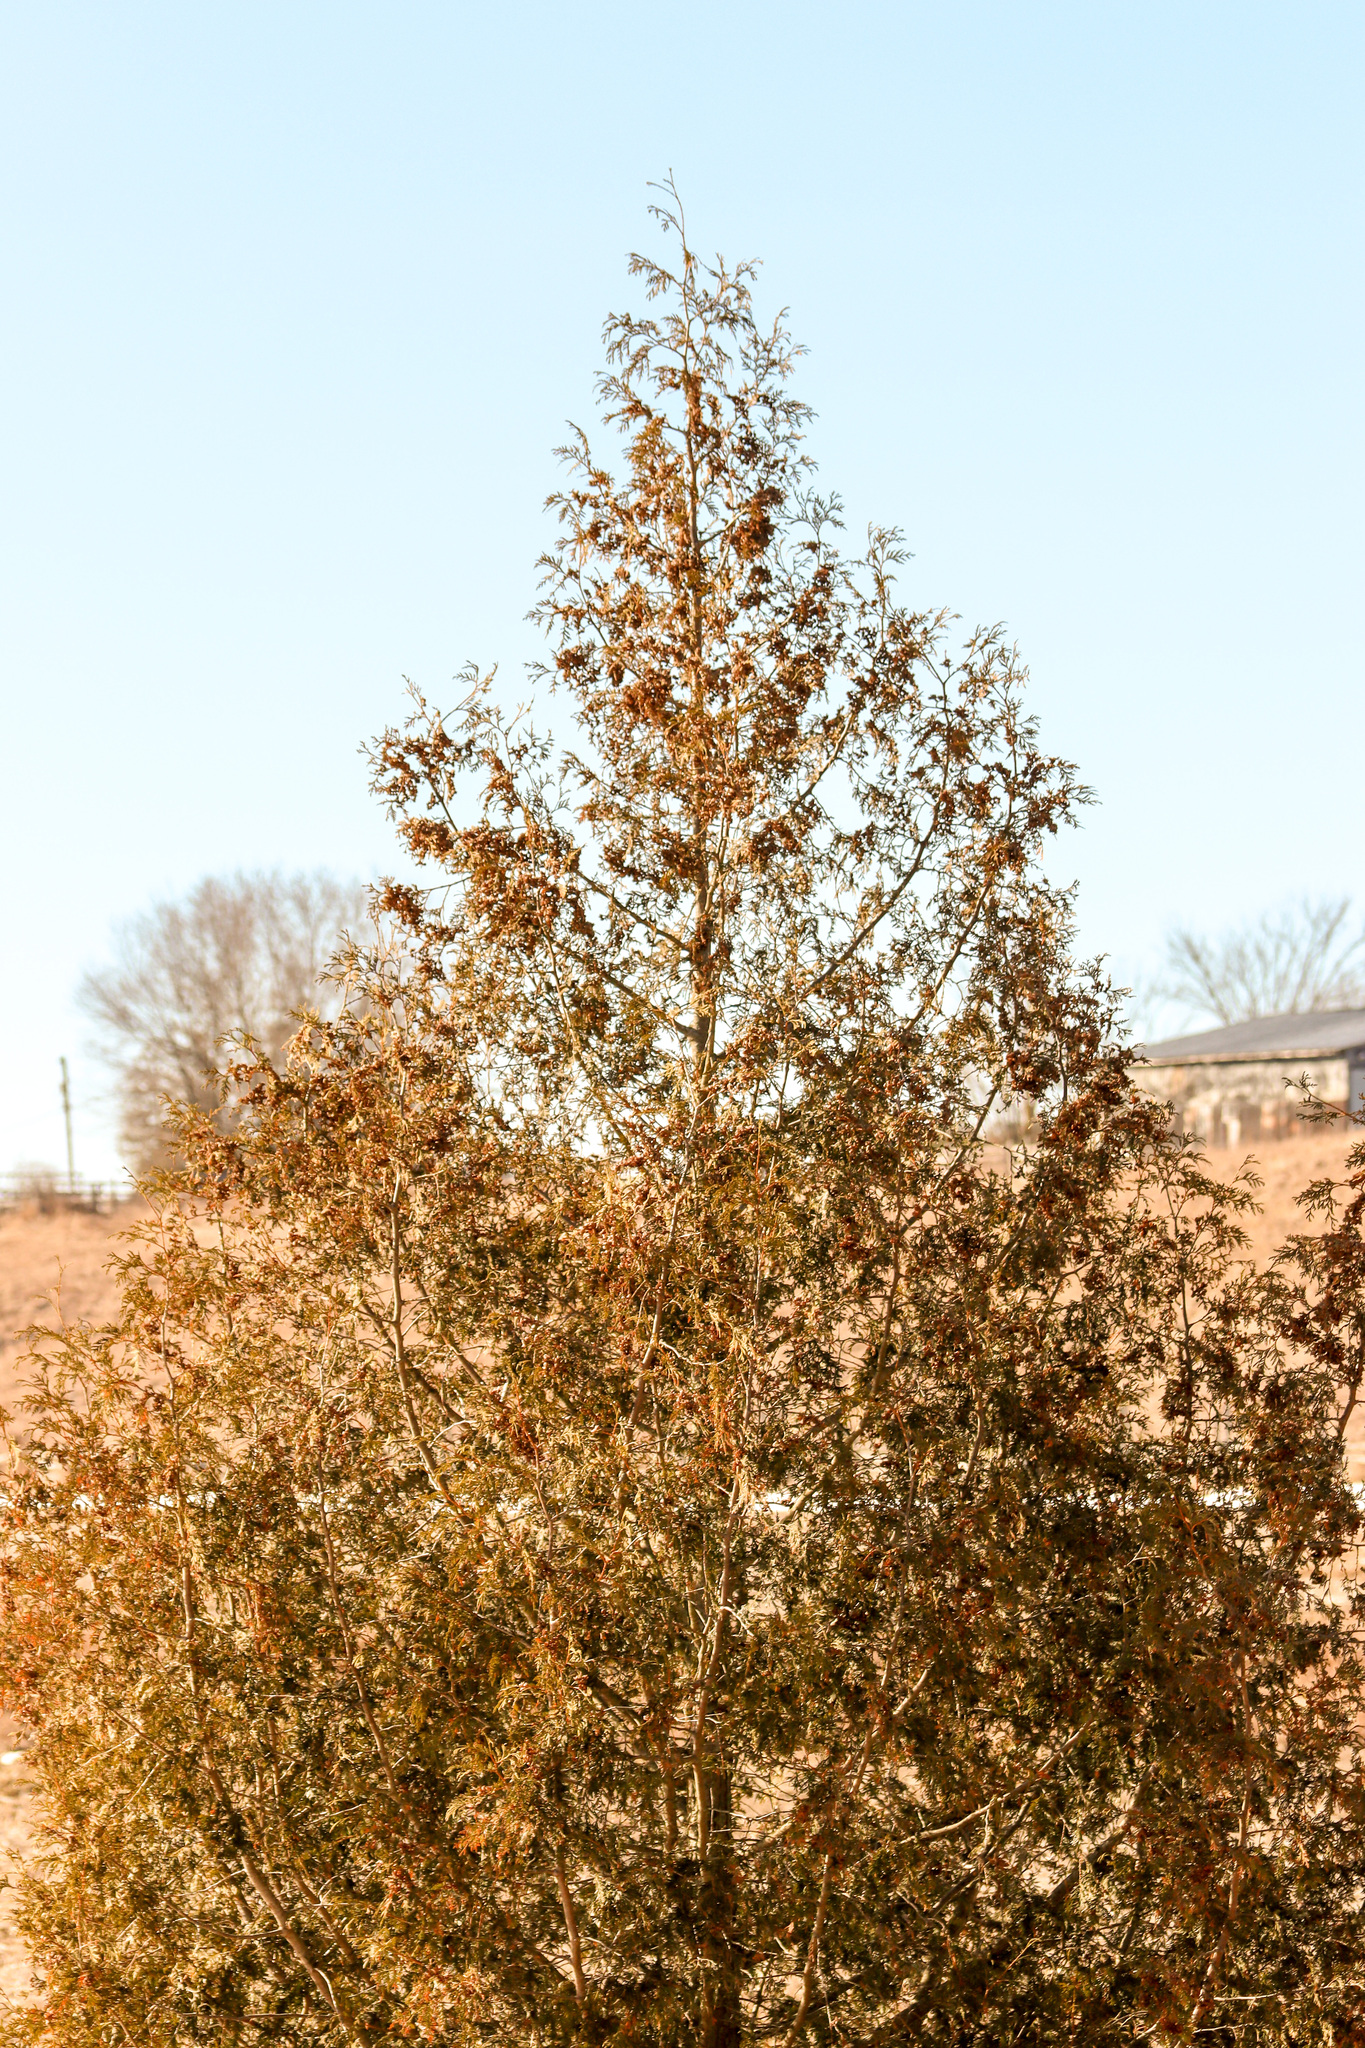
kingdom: Plantae
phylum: Tracheophyta
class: Pinopsida
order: Pinales
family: Cupressaceae
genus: Thuja
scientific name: Thuja occidentalis
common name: Northern white-cedar
